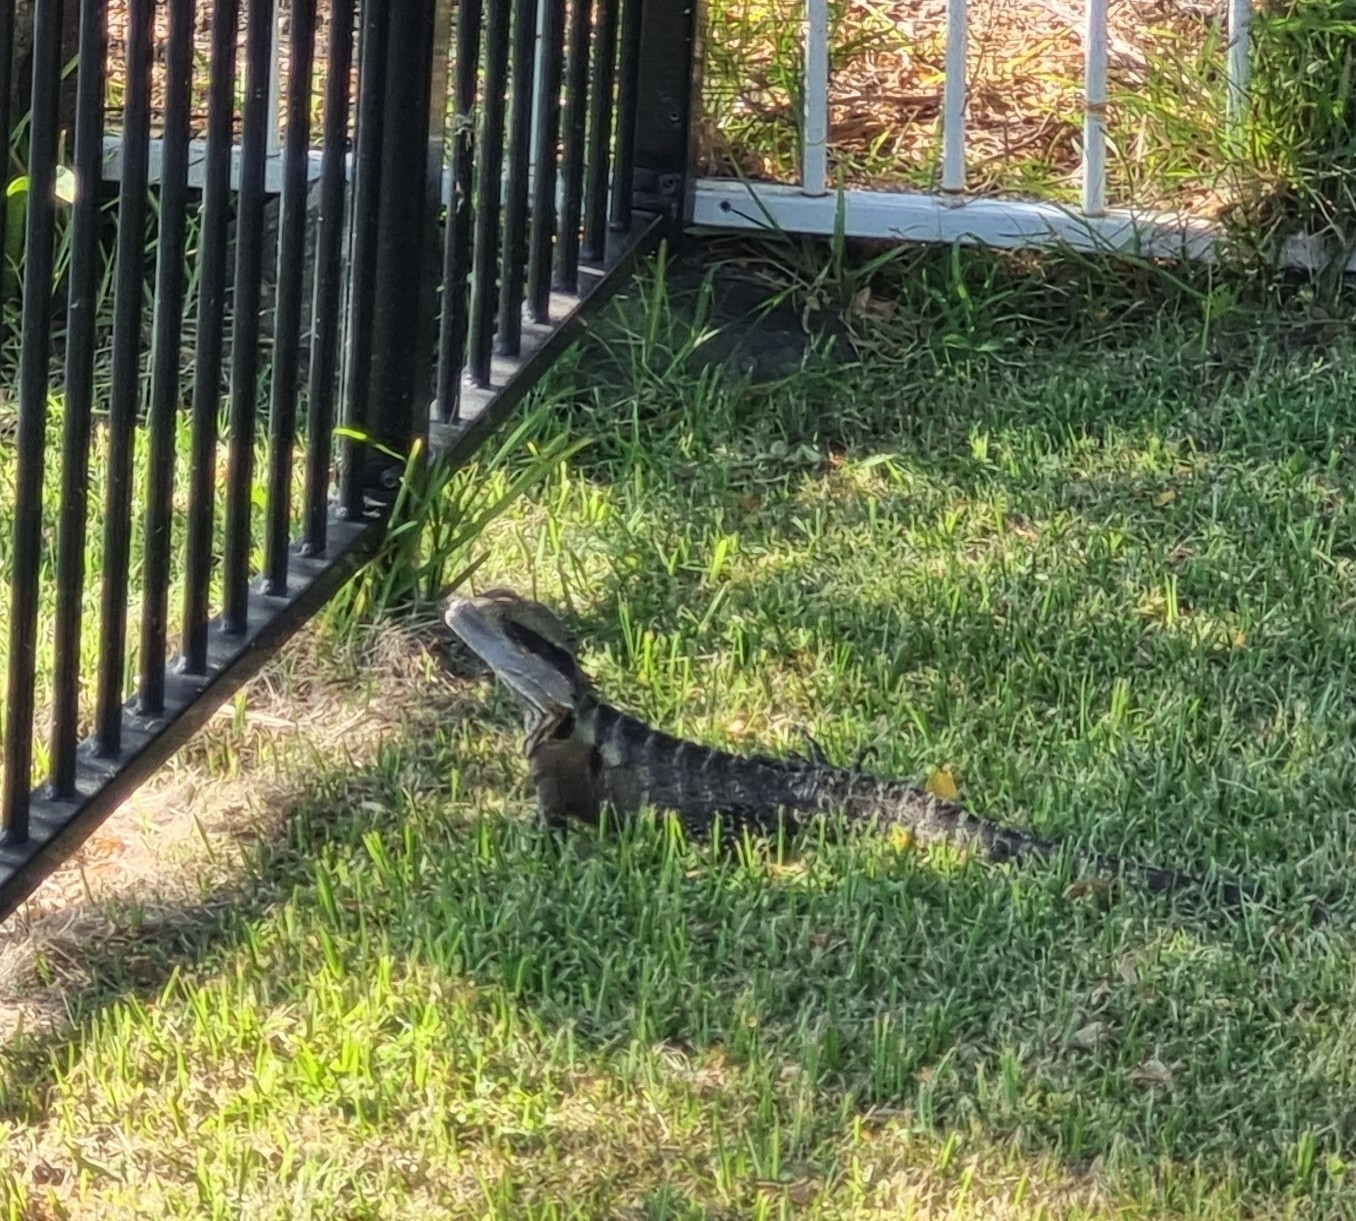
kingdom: Animalia
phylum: Chordata
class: Squamata
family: Agamidae
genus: Intellagama
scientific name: Intellagama lesueurii
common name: Eastern water dragon
